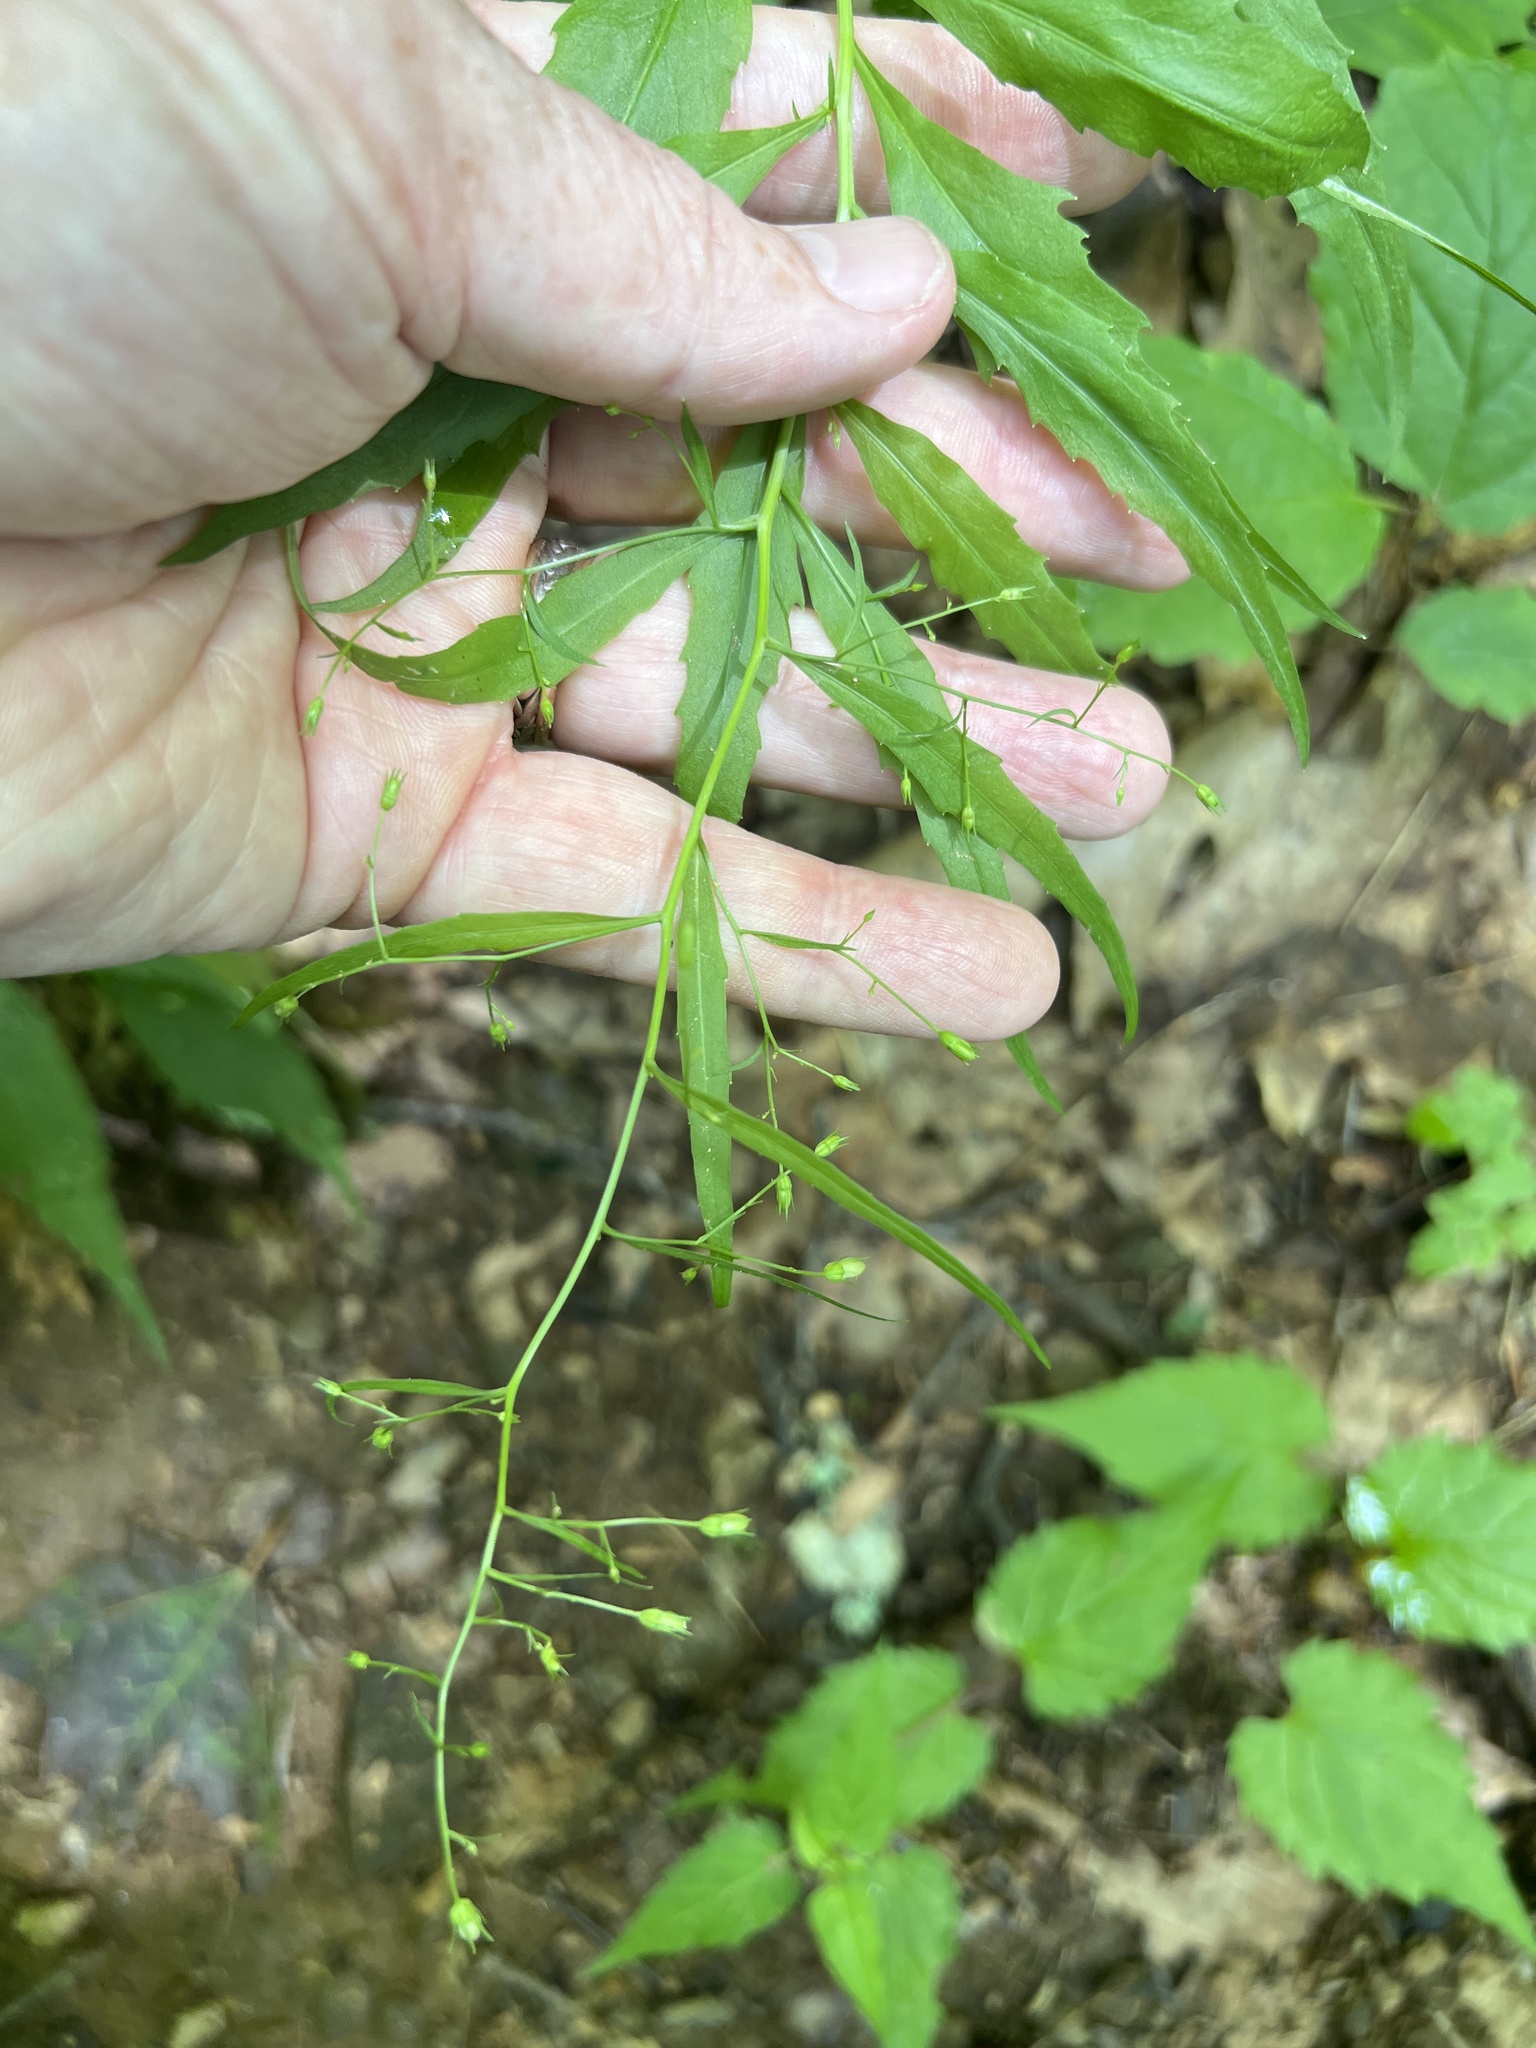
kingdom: Plantae
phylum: Tracheophyta
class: Magnoliopsida
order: Asterales
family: Asteraceae
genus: Hieracium
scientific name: Hieracium paniculatum
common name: Allegheny hawkweed
